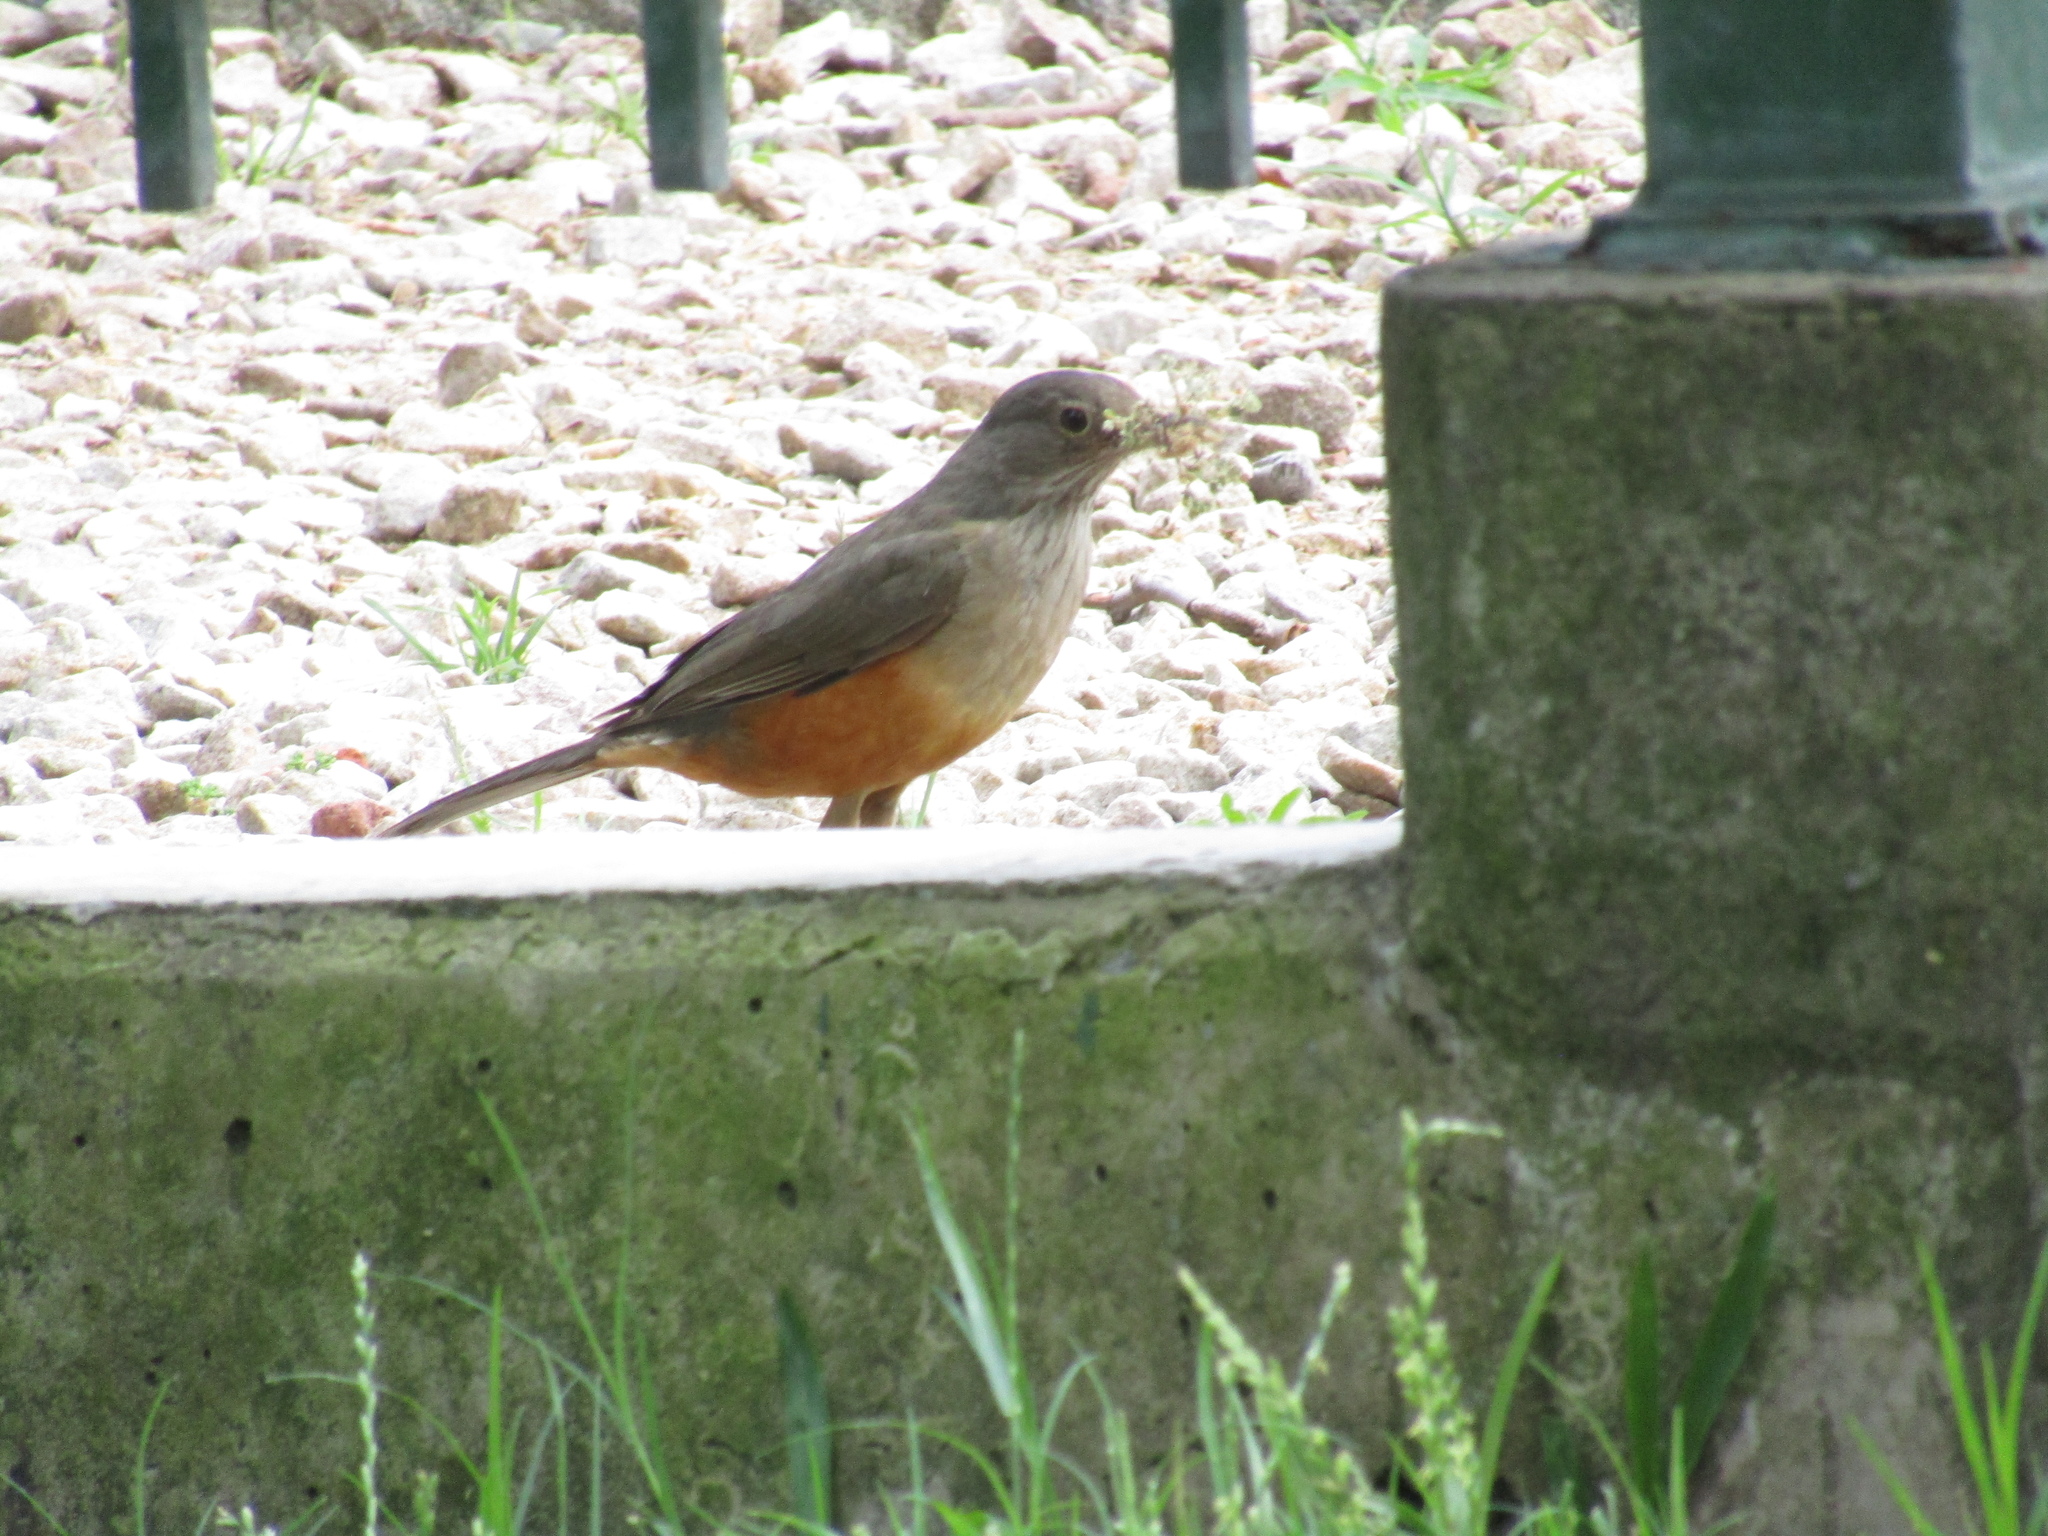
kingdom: Animalia
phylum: Chordata
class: Aves
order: Passeriformes
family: Turdidae
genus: Turdus
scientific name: Turdus rufiventris
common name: Rufous-bellied thrush
